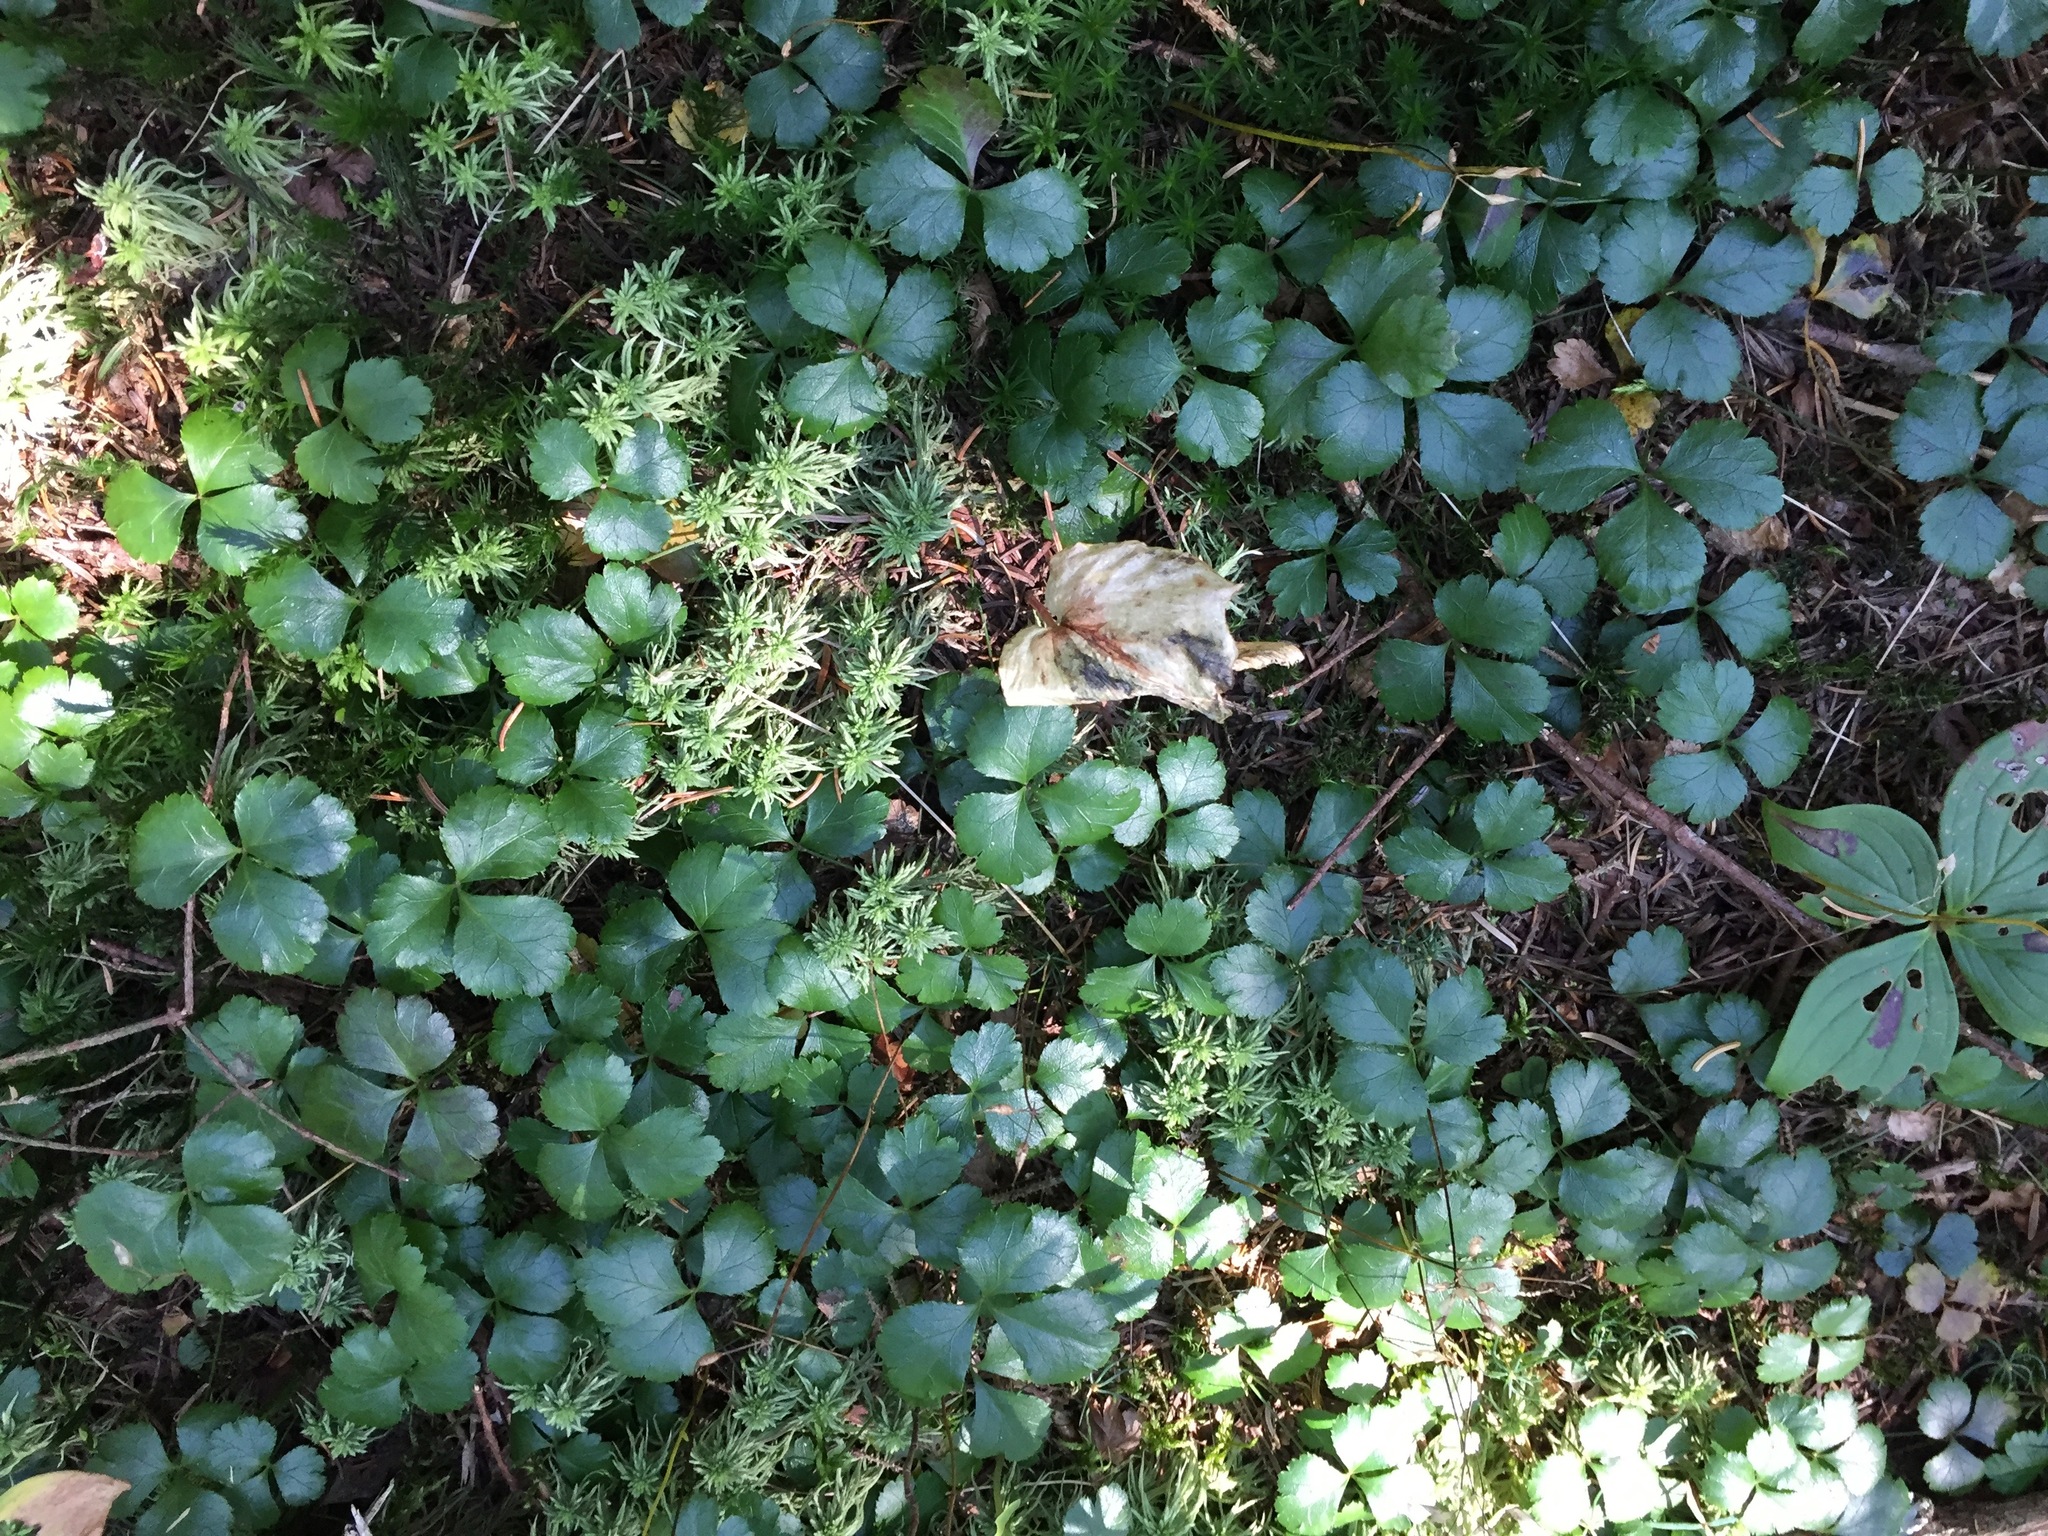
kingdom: Plantae
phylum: Tracheophyta
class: Magnoliopsida
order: Ranunculales
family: Ranunculaceae
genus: Coptis
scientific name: Coptis trifolia
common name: Canker-root
